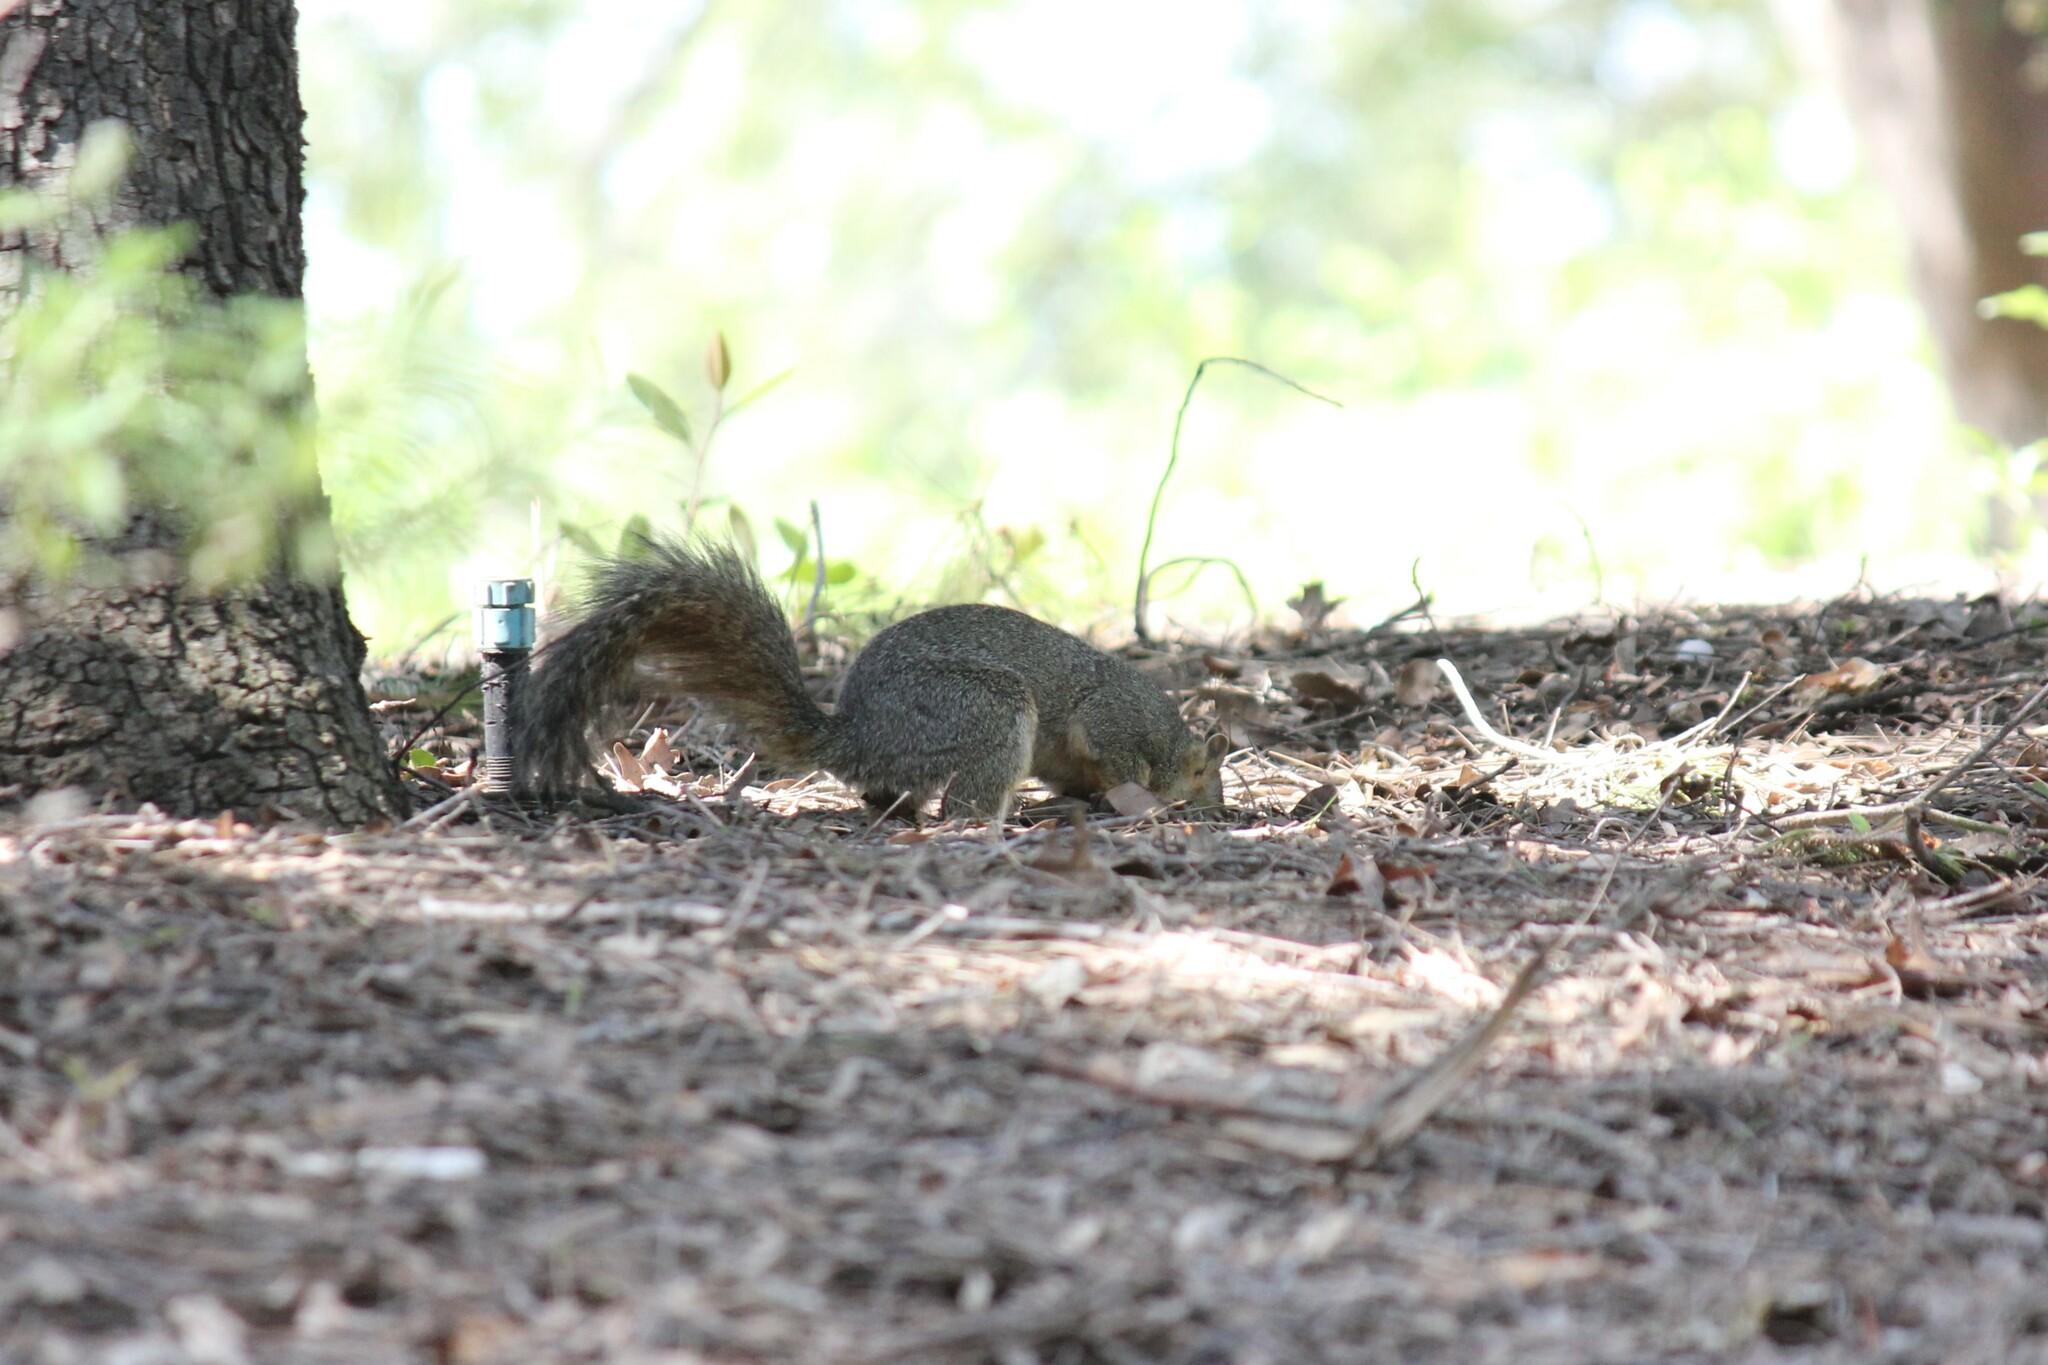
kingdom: Animalia
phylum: Chordata
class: Mammalia
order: Rodentia
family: Sciuridae
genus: Sciurus
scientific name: Sciurus niger
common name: Fox squirrel
